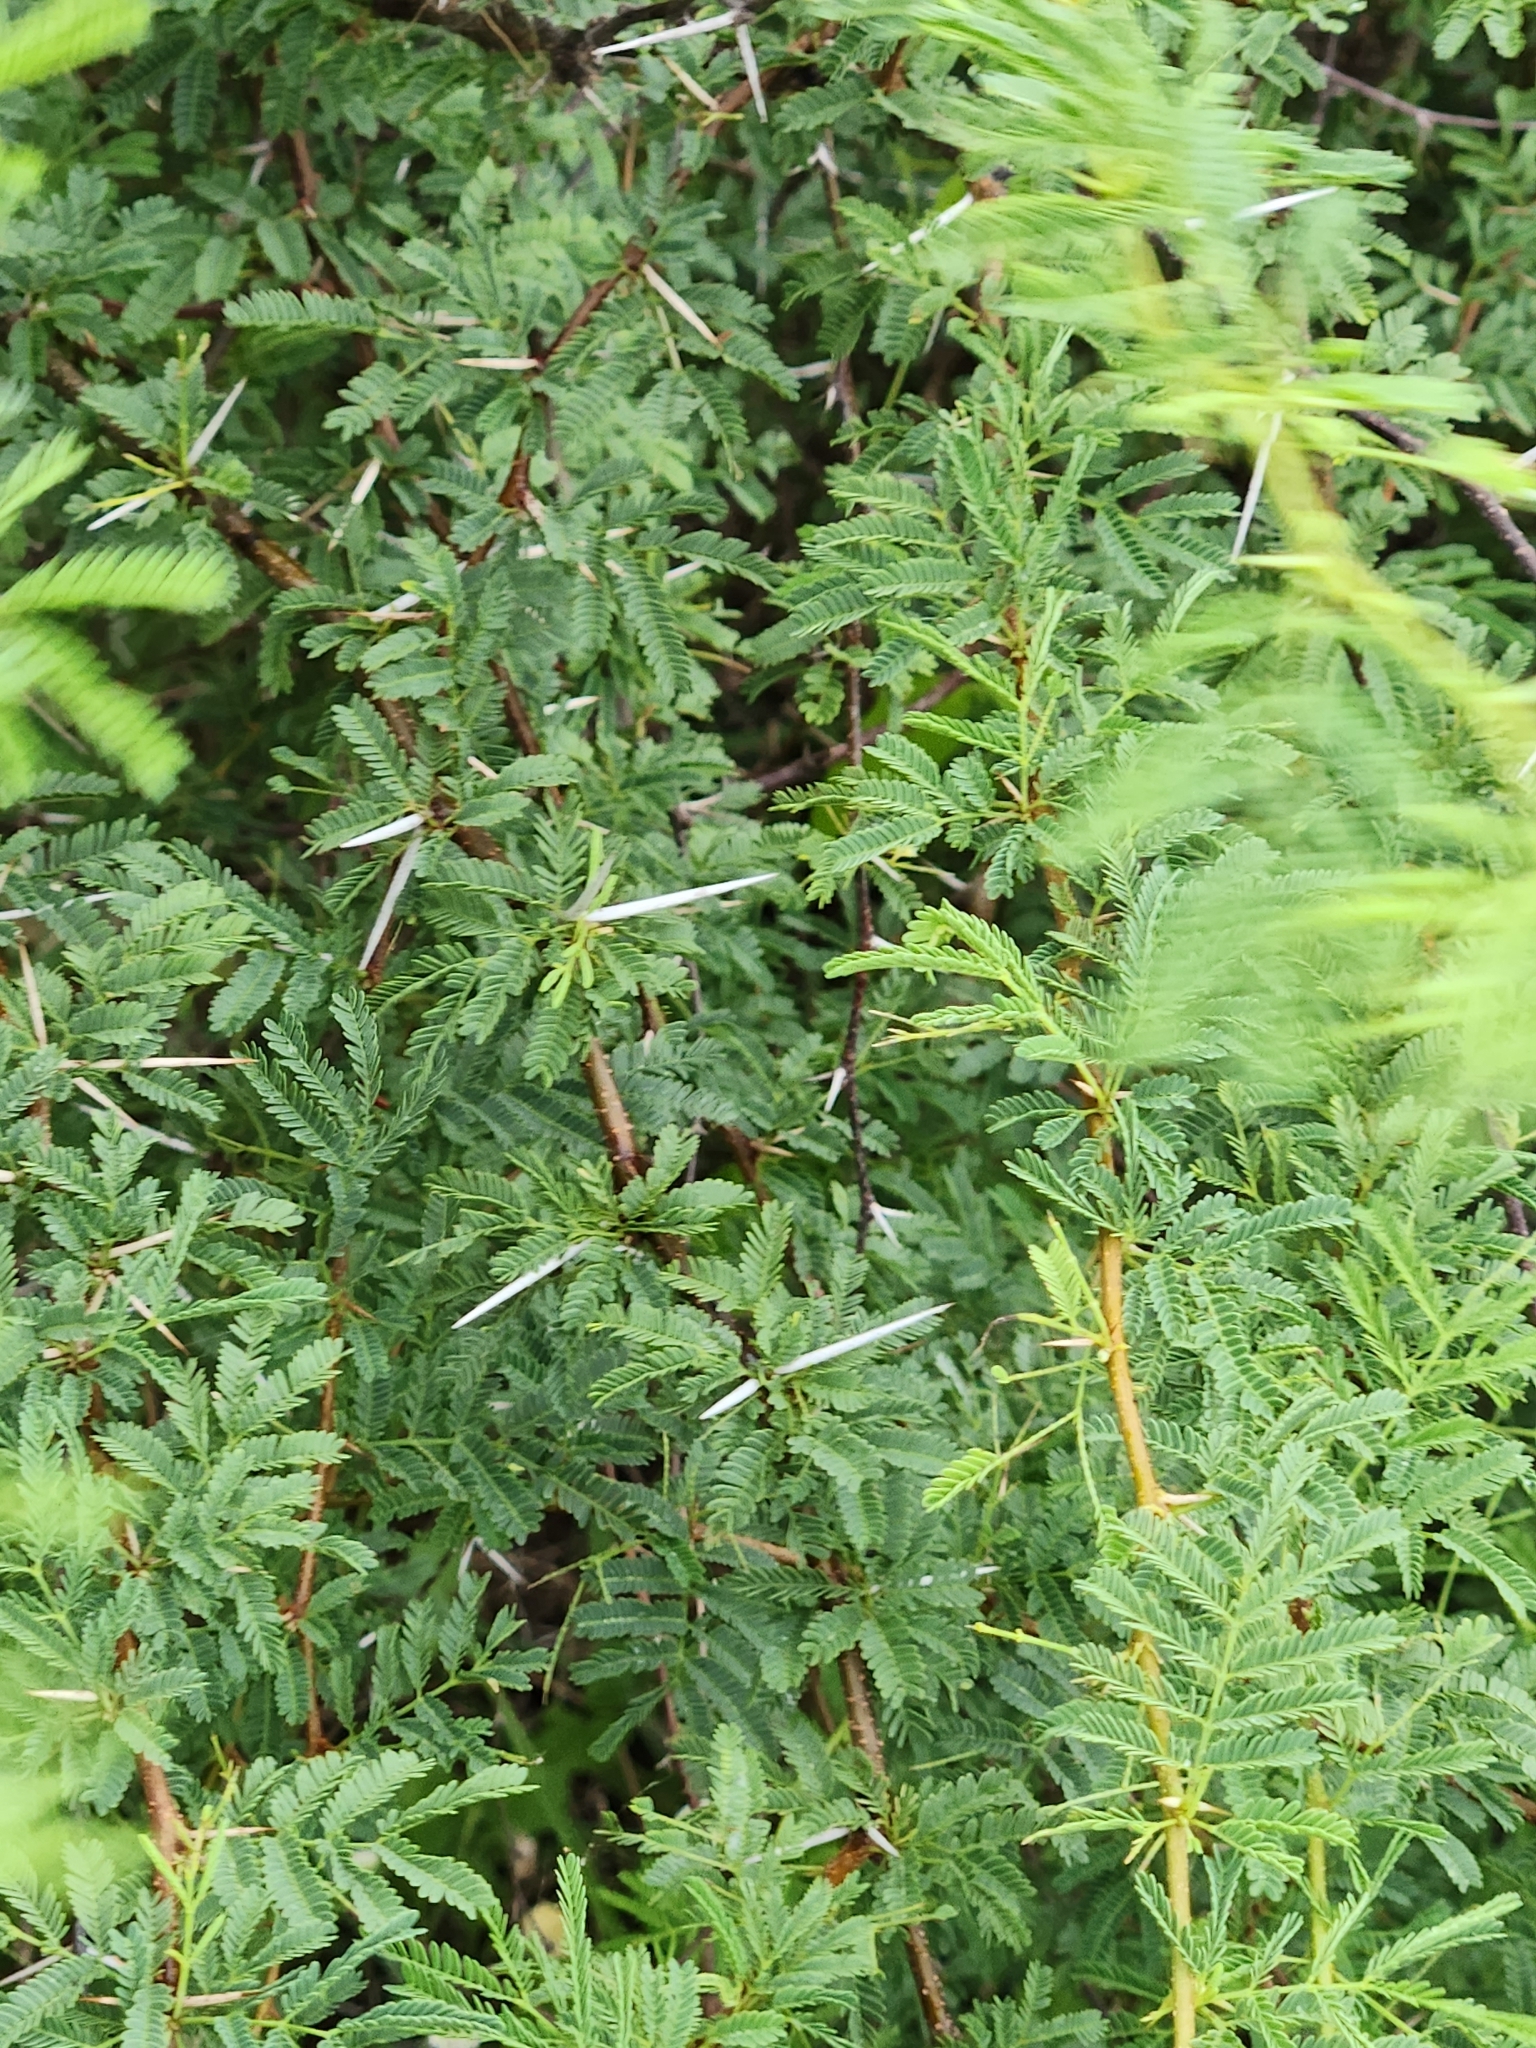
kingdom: Plantae
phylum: Tracheophyta
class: Magnoliopsida
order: Fabales
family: Fabaceae
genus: Vachellia
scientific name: Vachellia farnesiana
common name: Sweet acacia
